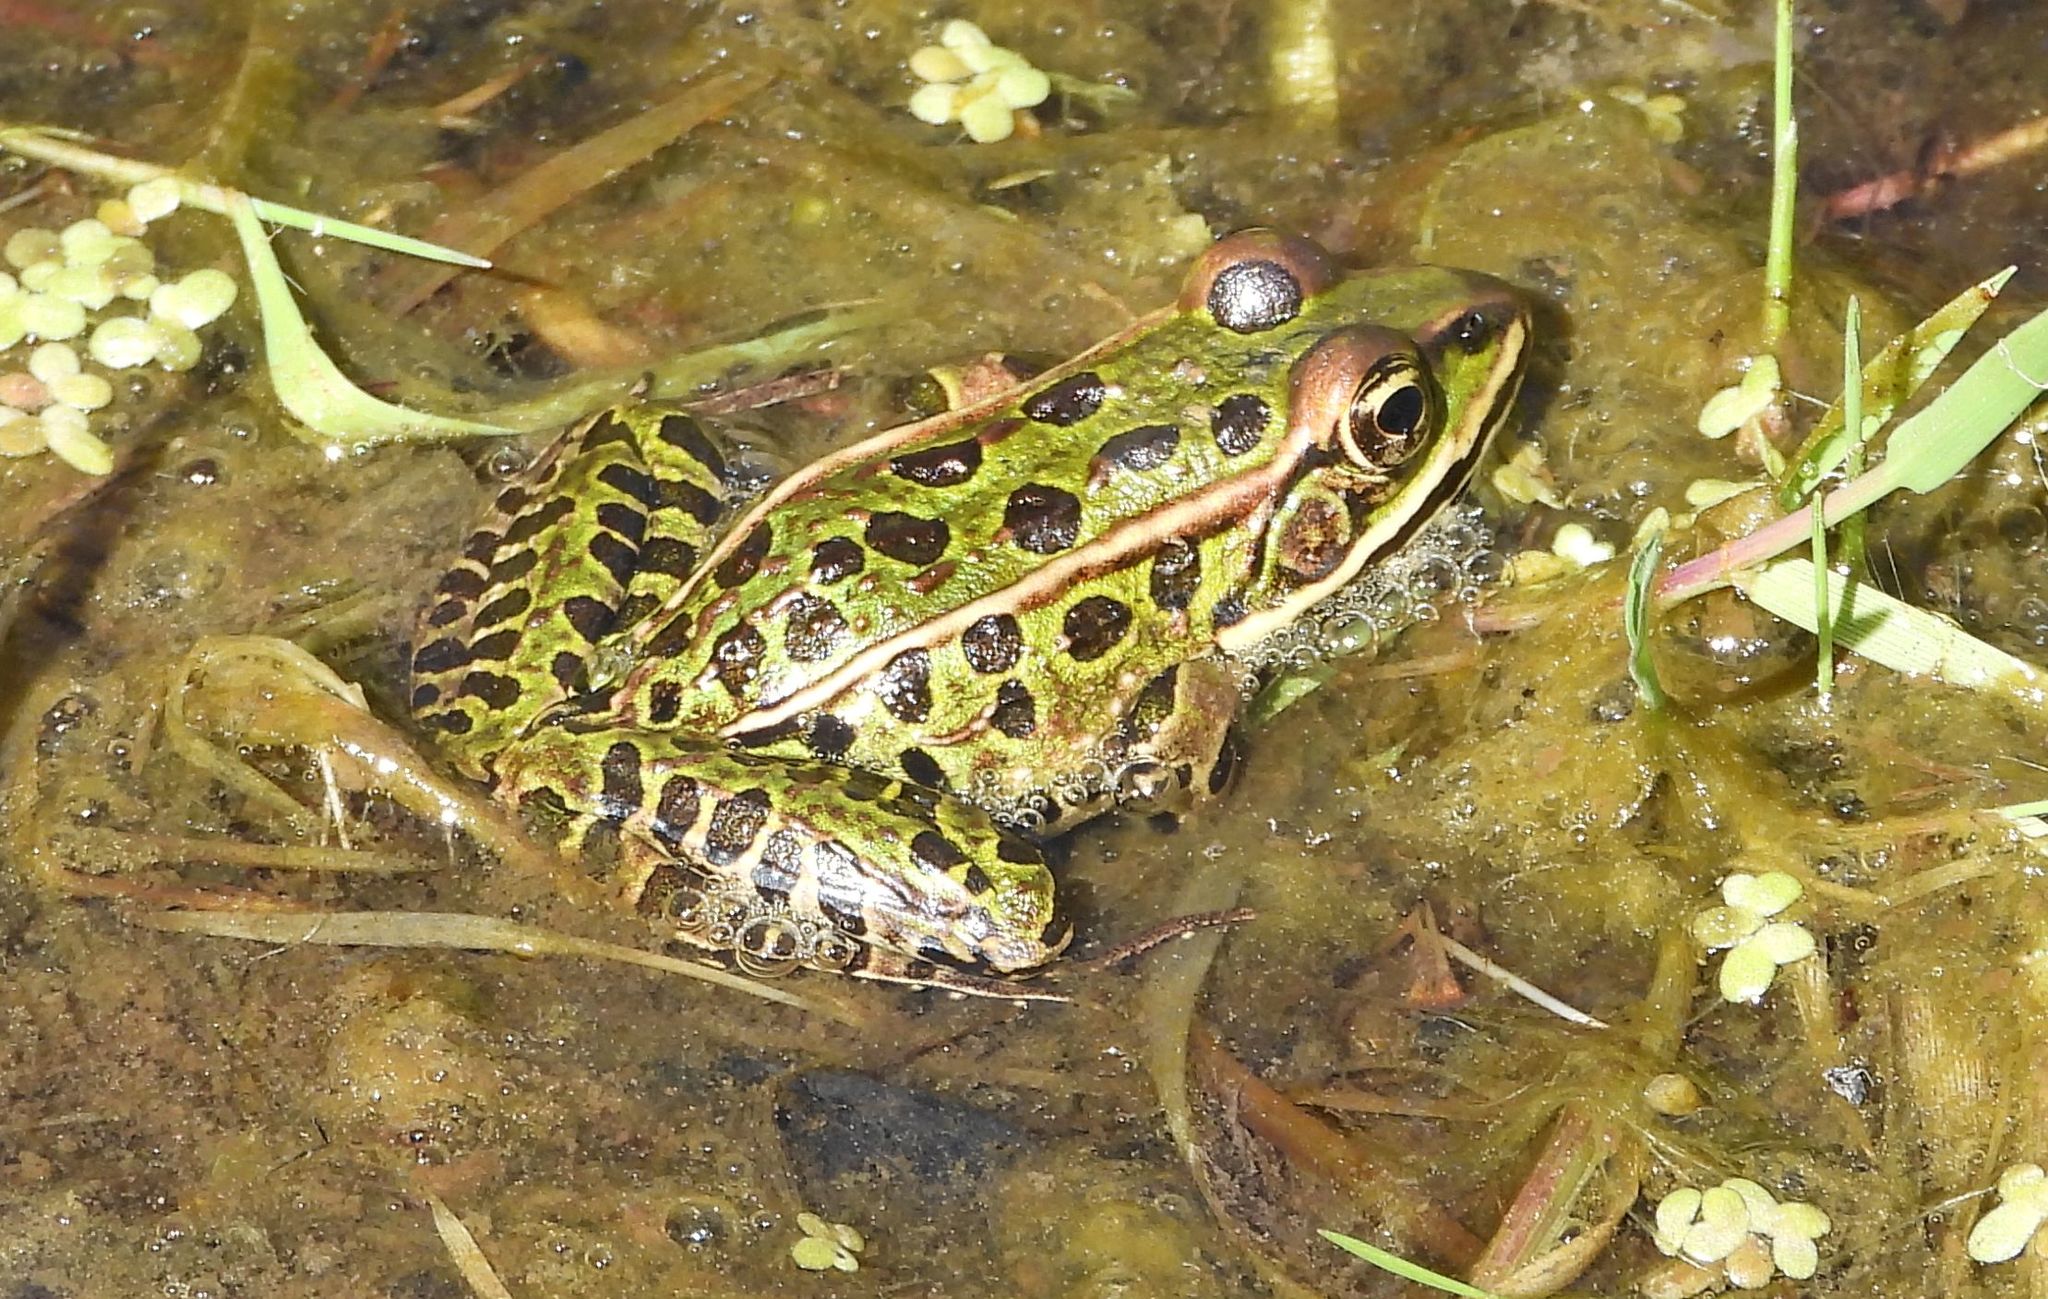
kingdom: Animalia
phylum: Chordata
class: Amphibia
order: Anura
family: Ranidae
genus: Lithobates
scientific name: Lithobates pipiens
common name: Northern leopard frog
